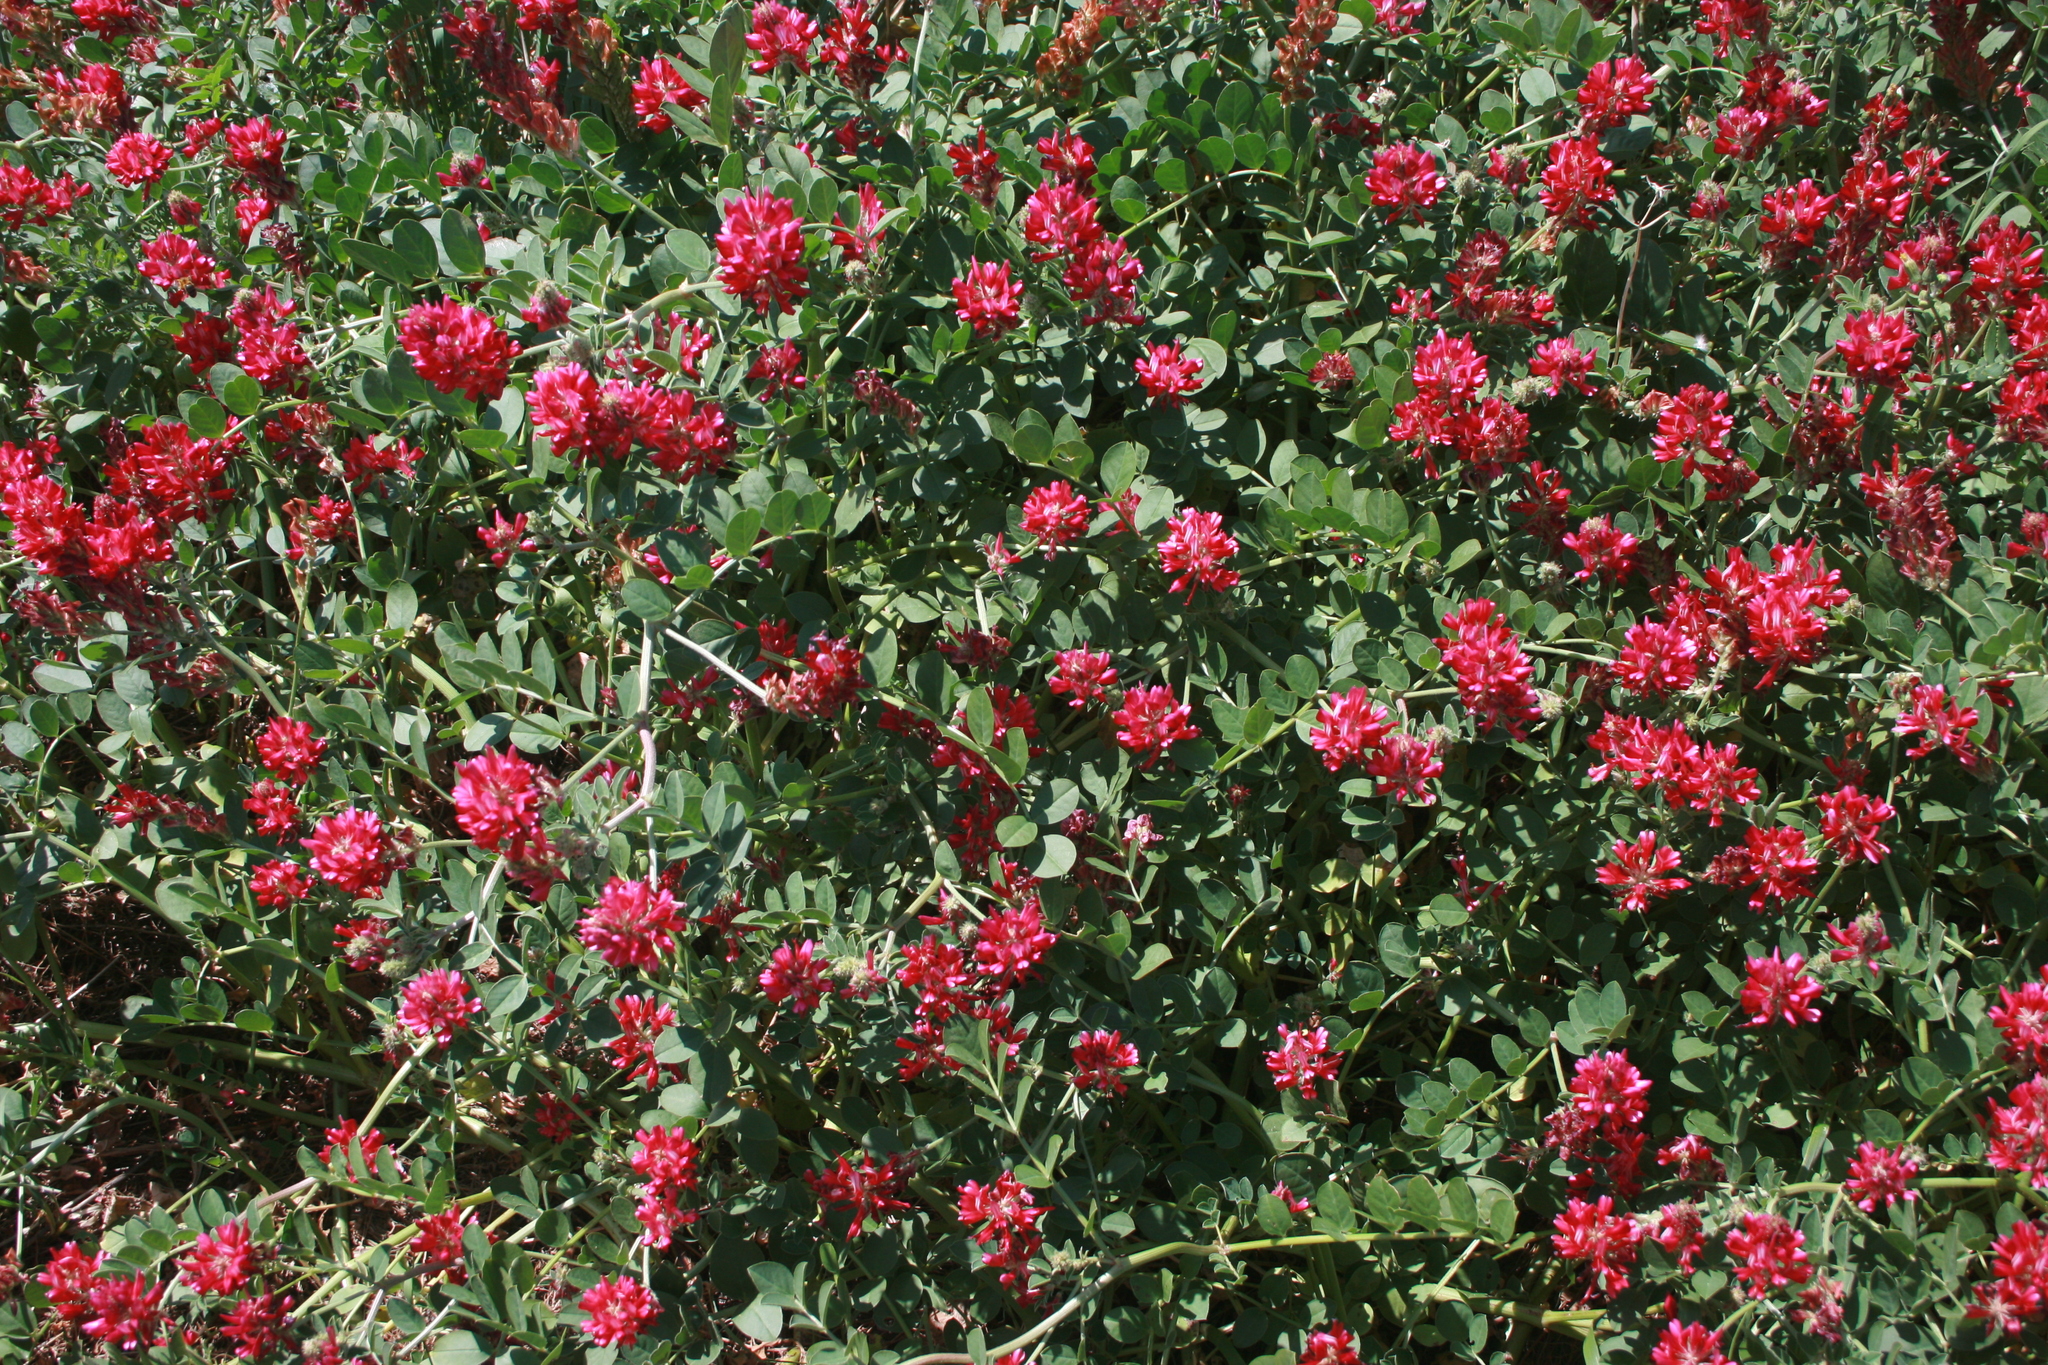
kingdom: Plantae
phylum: Tracheophyta
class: Magnoliopsida
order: Fabales
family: Fabaceae
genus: Sulla
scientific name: Sulla coronaria
